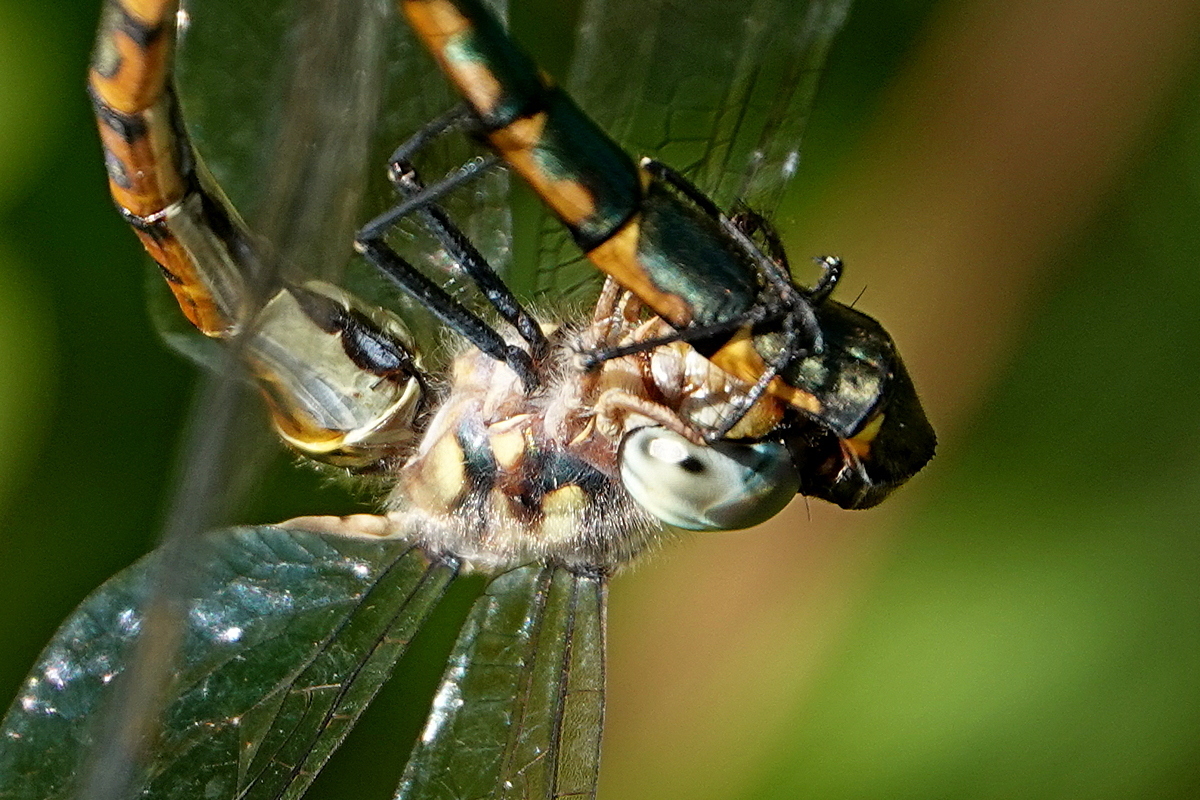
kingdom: Animalia
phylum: Arthropoda
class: Insecta
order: Odonata
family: Corduliidae
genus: Hemicordulia
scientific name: Hemicordulia australiae
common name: Sentry dragonfly
